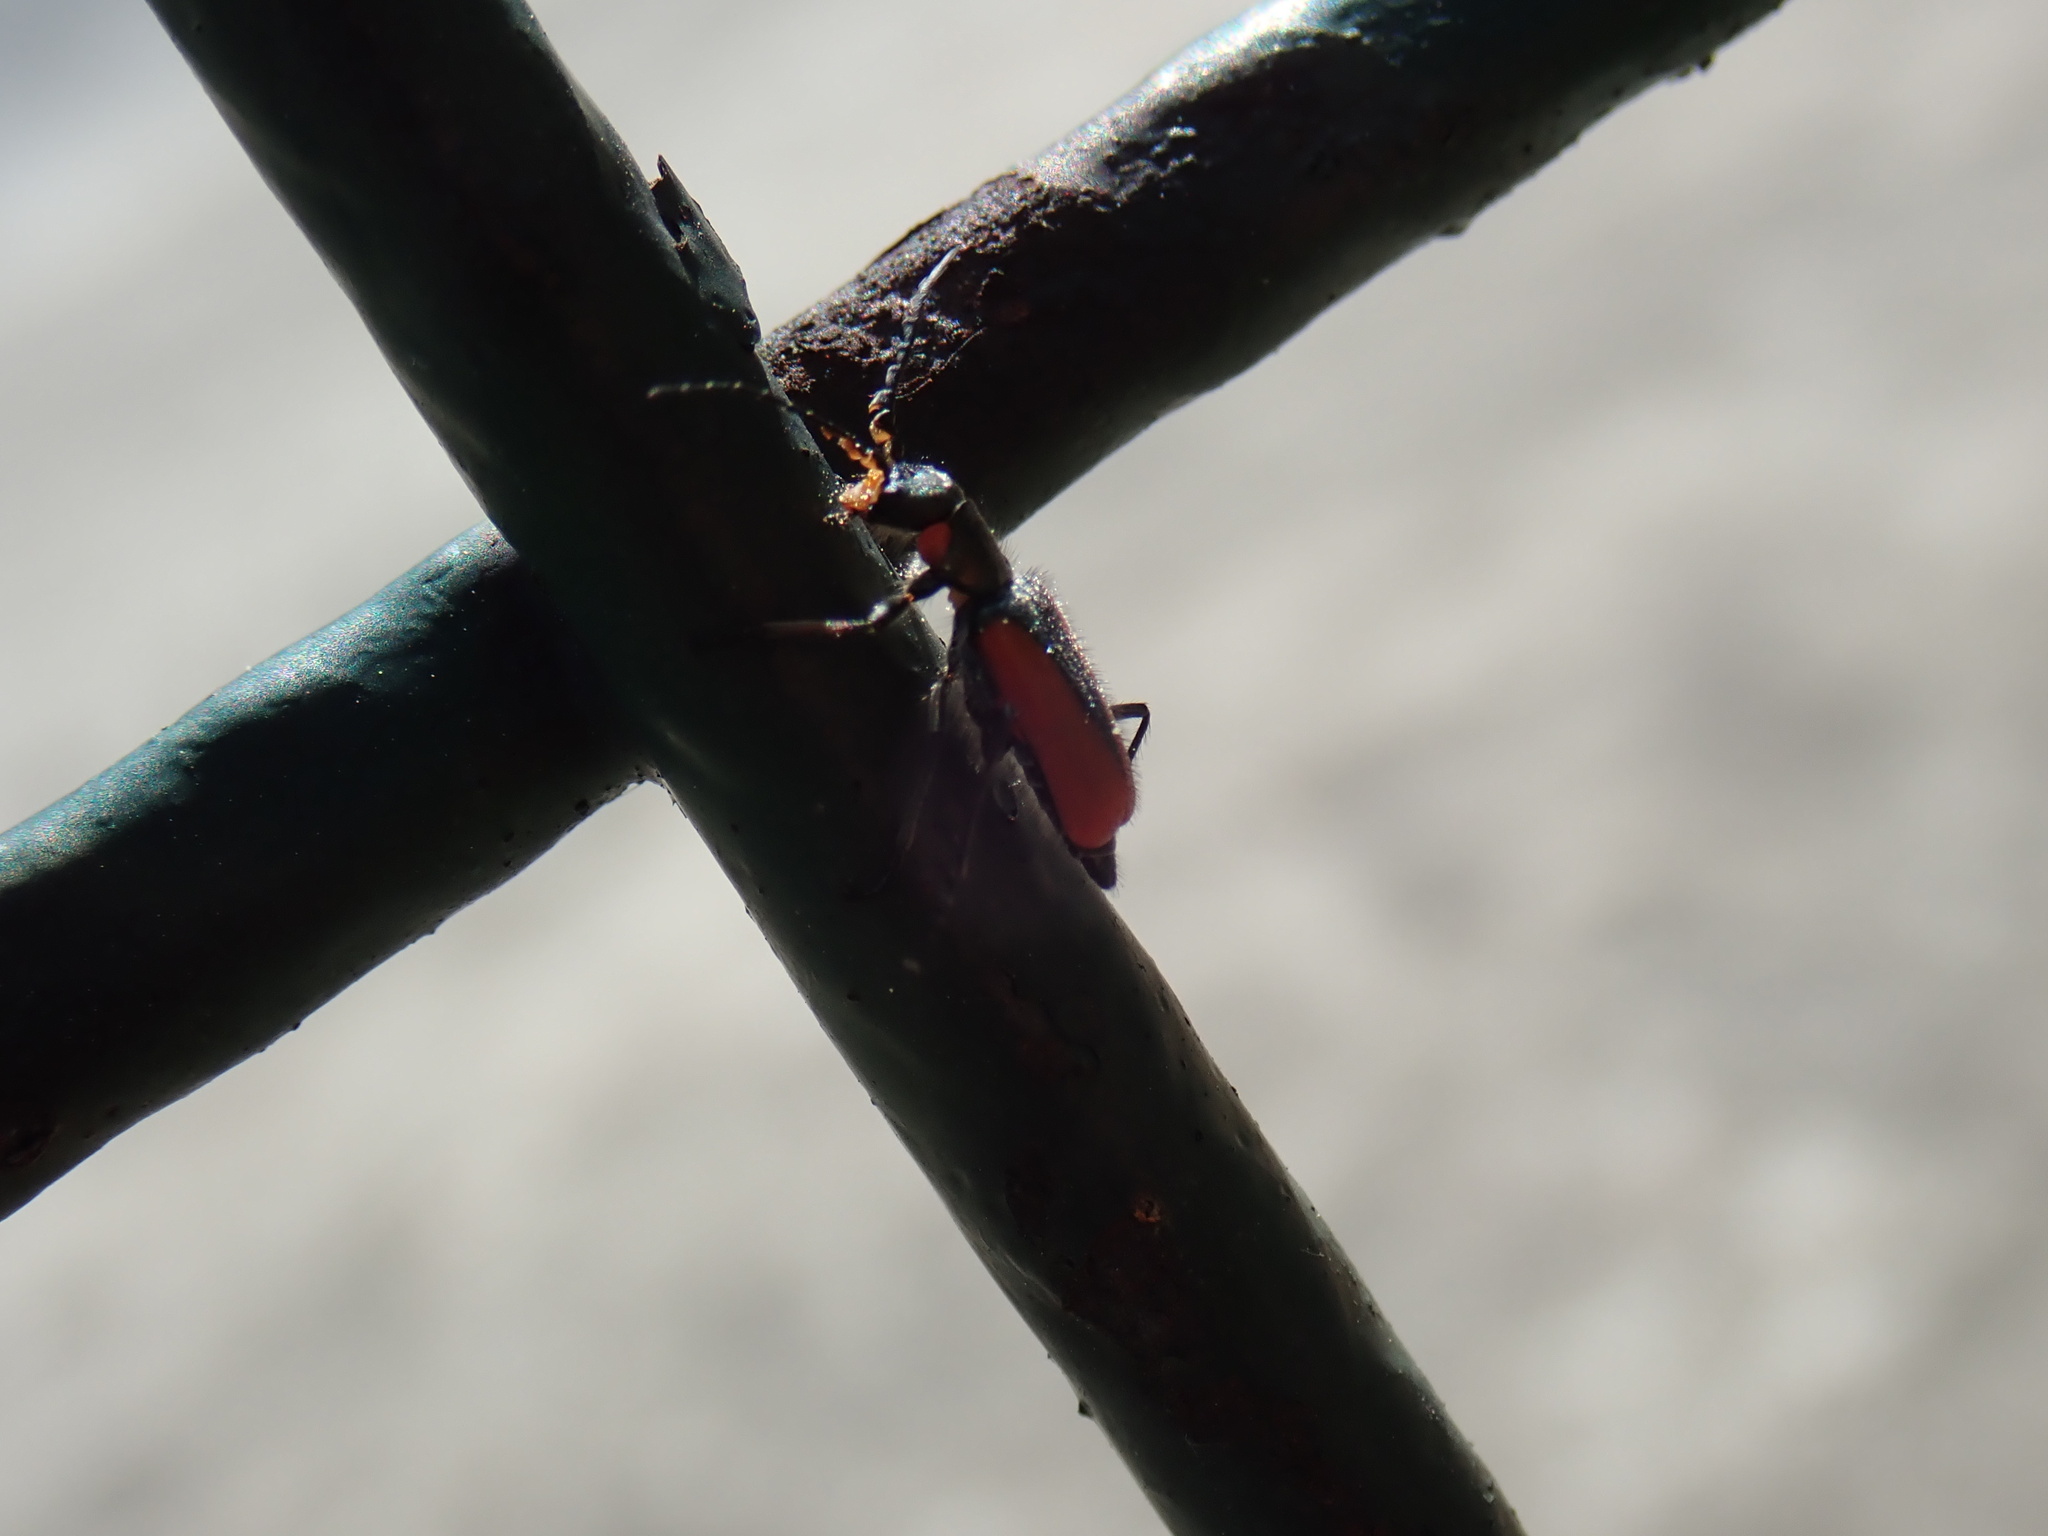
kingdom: Animalia
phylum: Arthropoda
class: Insecta
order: Coleoptera
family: Melyridae
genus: Malachius
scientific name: Malachius
